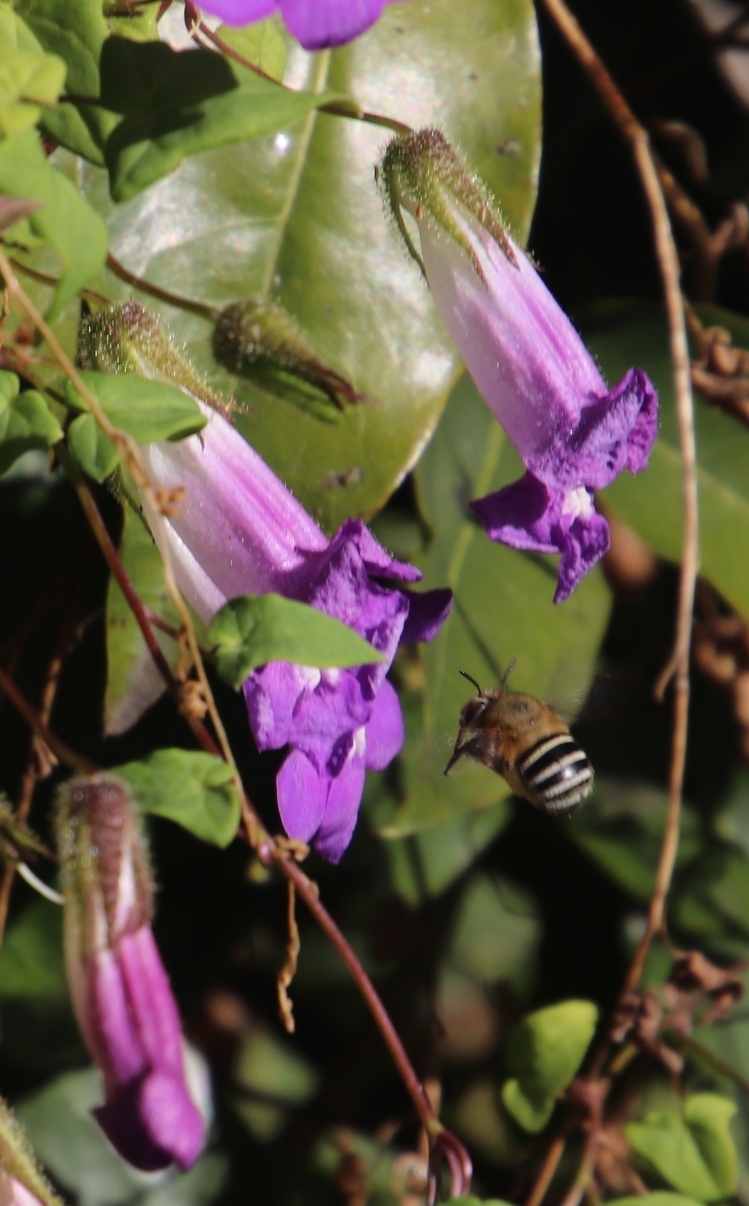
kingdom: Plantae
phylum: Tracheophyta
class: Magnoliopsida
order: Lamiales
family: Plantaginaceae
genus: Maurandya
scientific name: Maurandya barclayana
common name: Mexican viper
